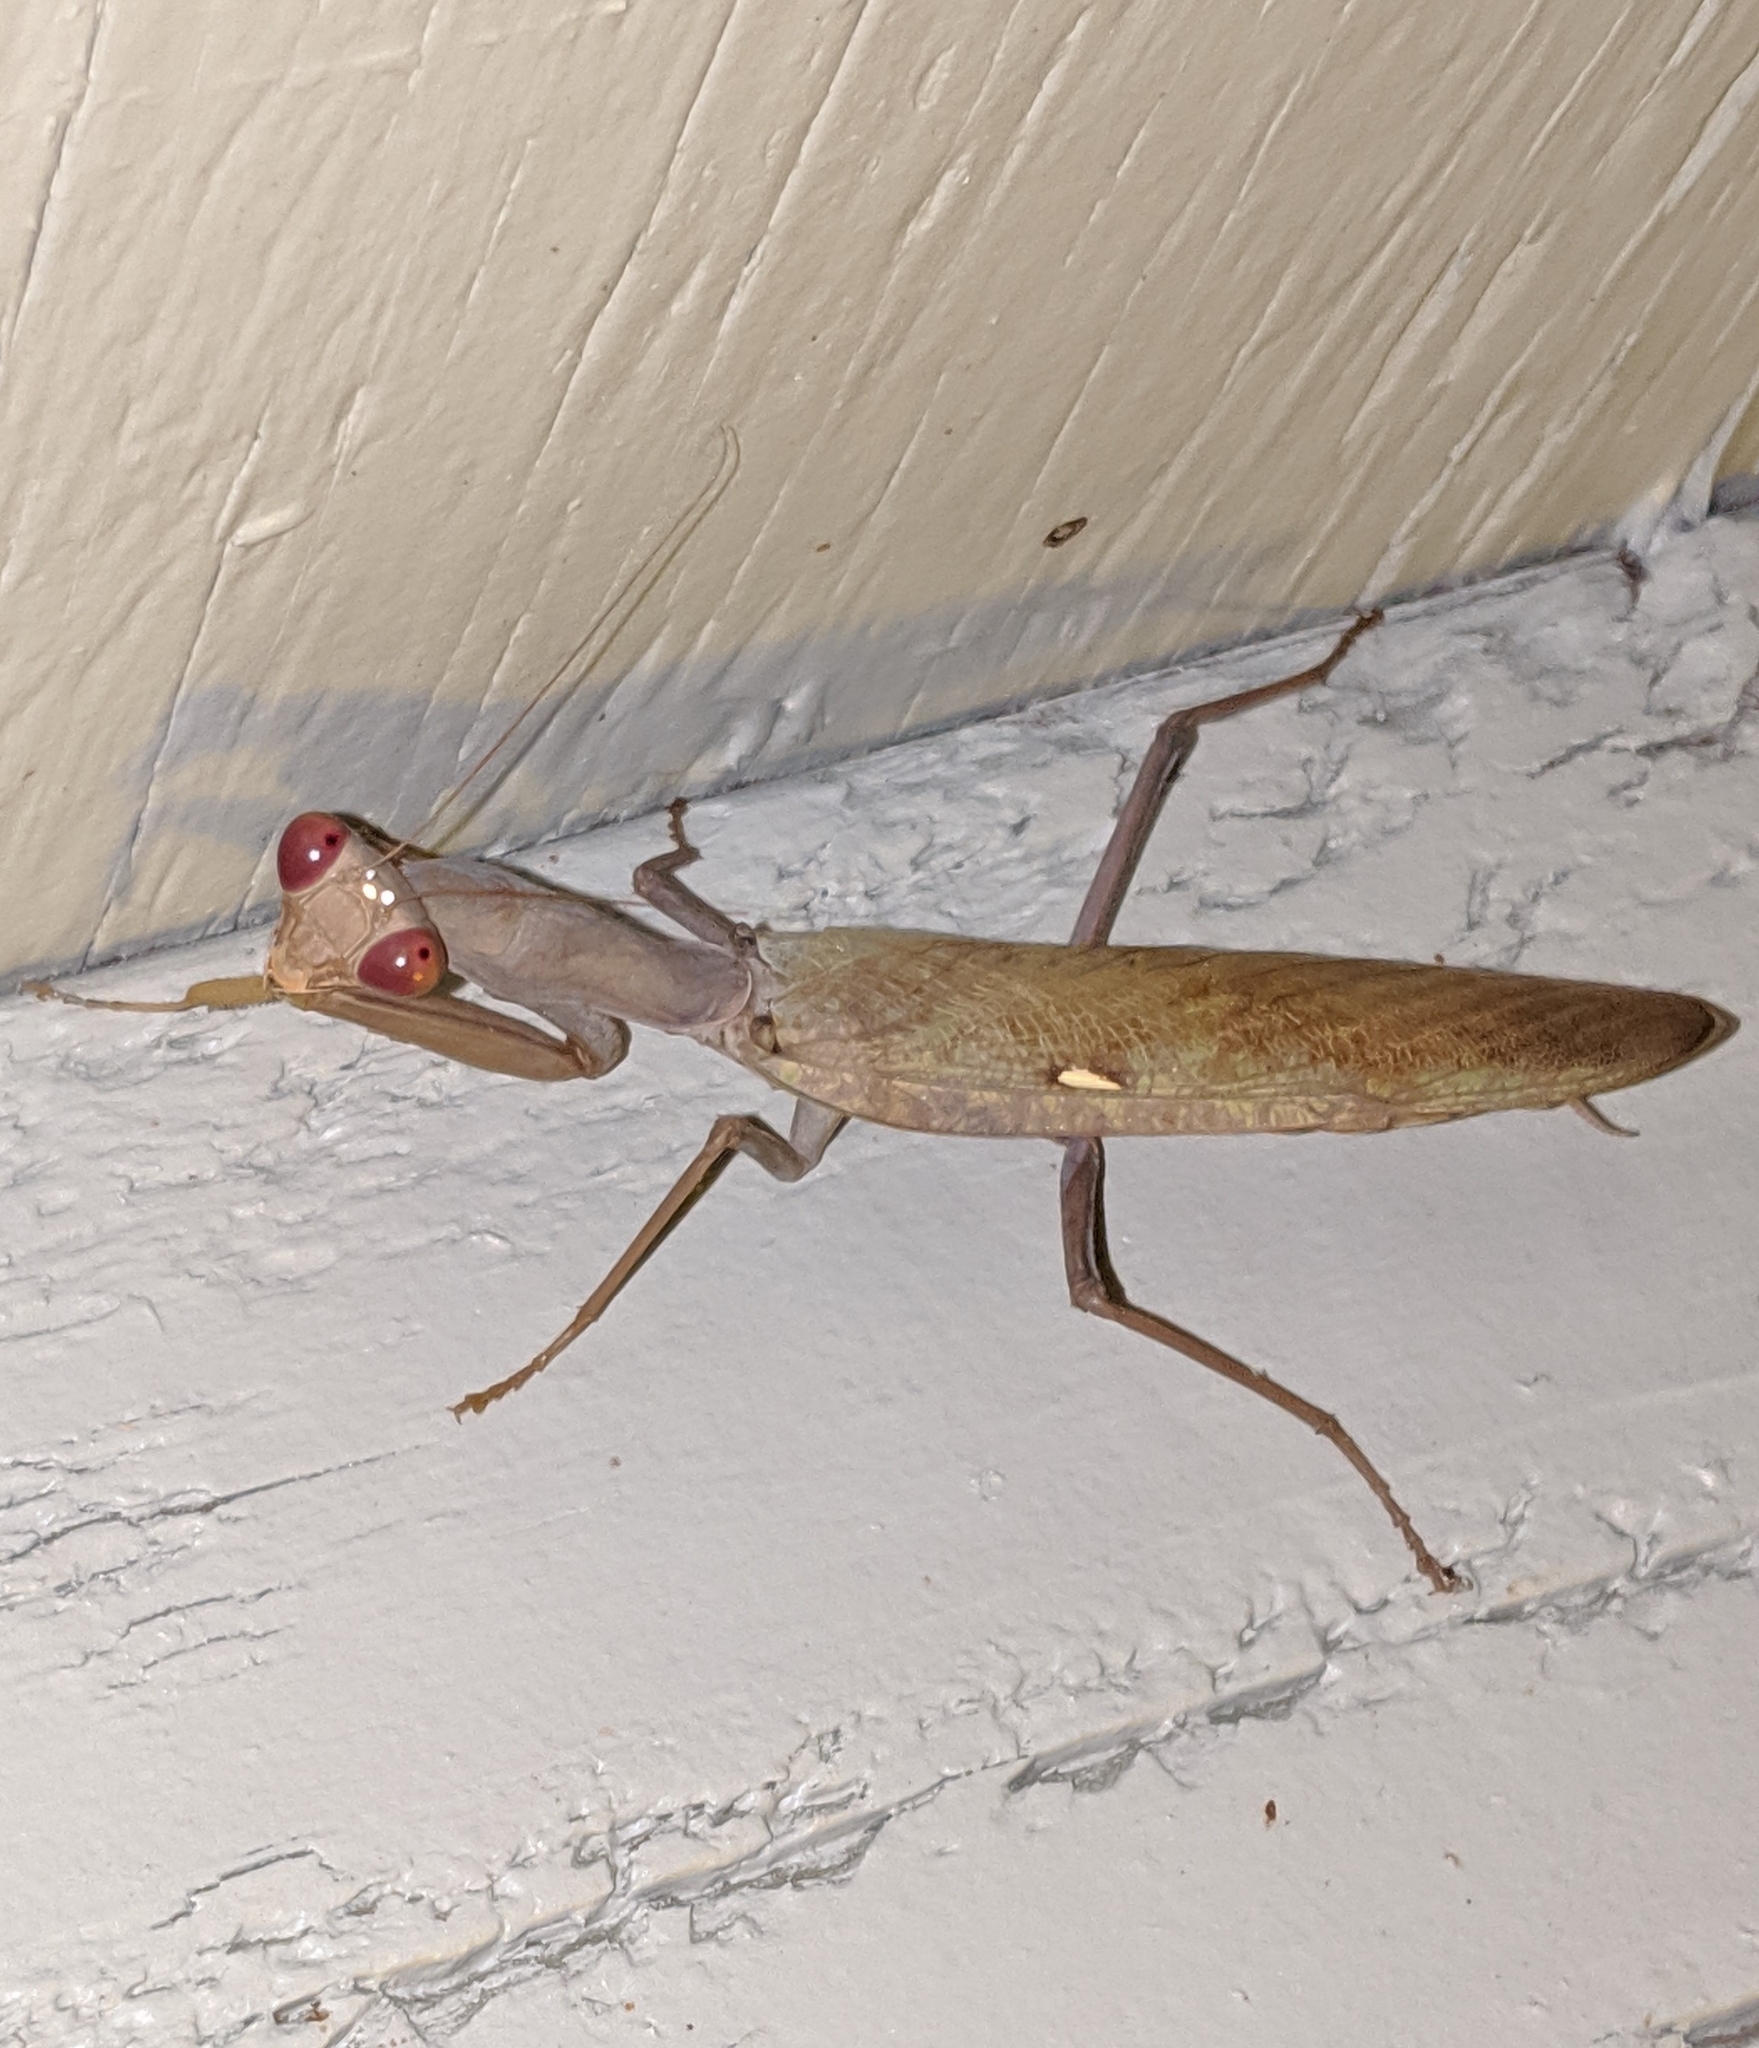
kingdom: Animalia
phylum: Arthropoda
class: Insecta
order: Mantodea
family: Mantidae
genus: Hierodula
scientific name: Hierodula patellifera
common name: Asian mantis
